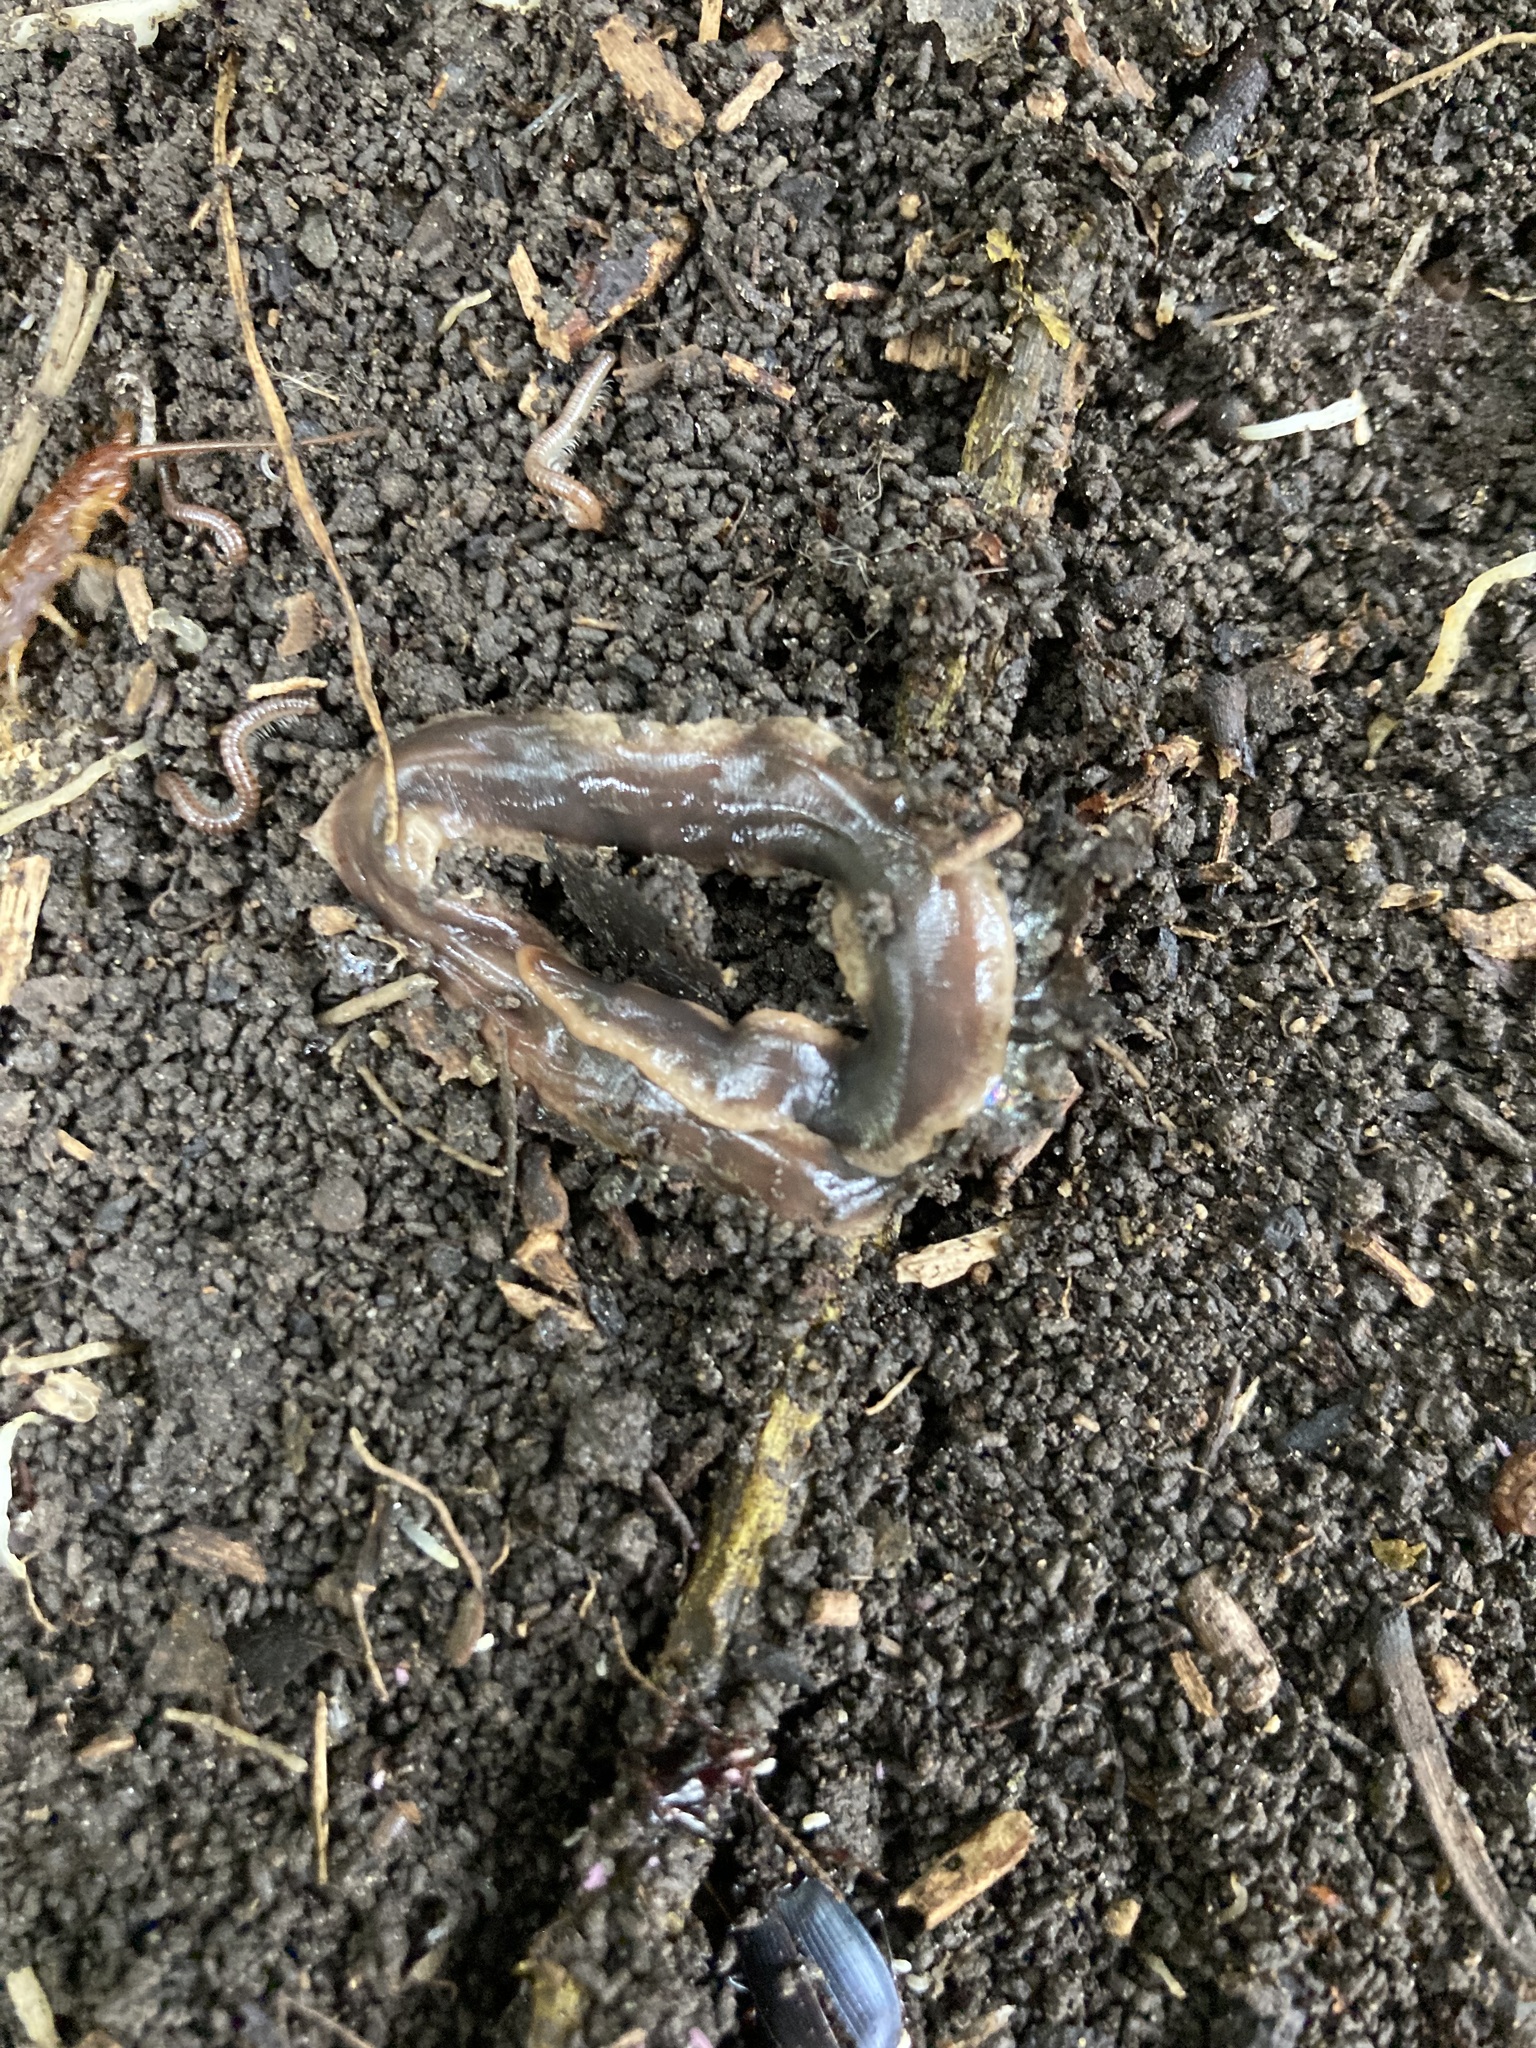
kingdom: Animalia
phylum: Platyhelminthes
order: Tricladida
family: Geoplanidae
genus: Arthurdendyus
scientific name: Arthurdendyus triangulatus
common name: New zealand flatworm
